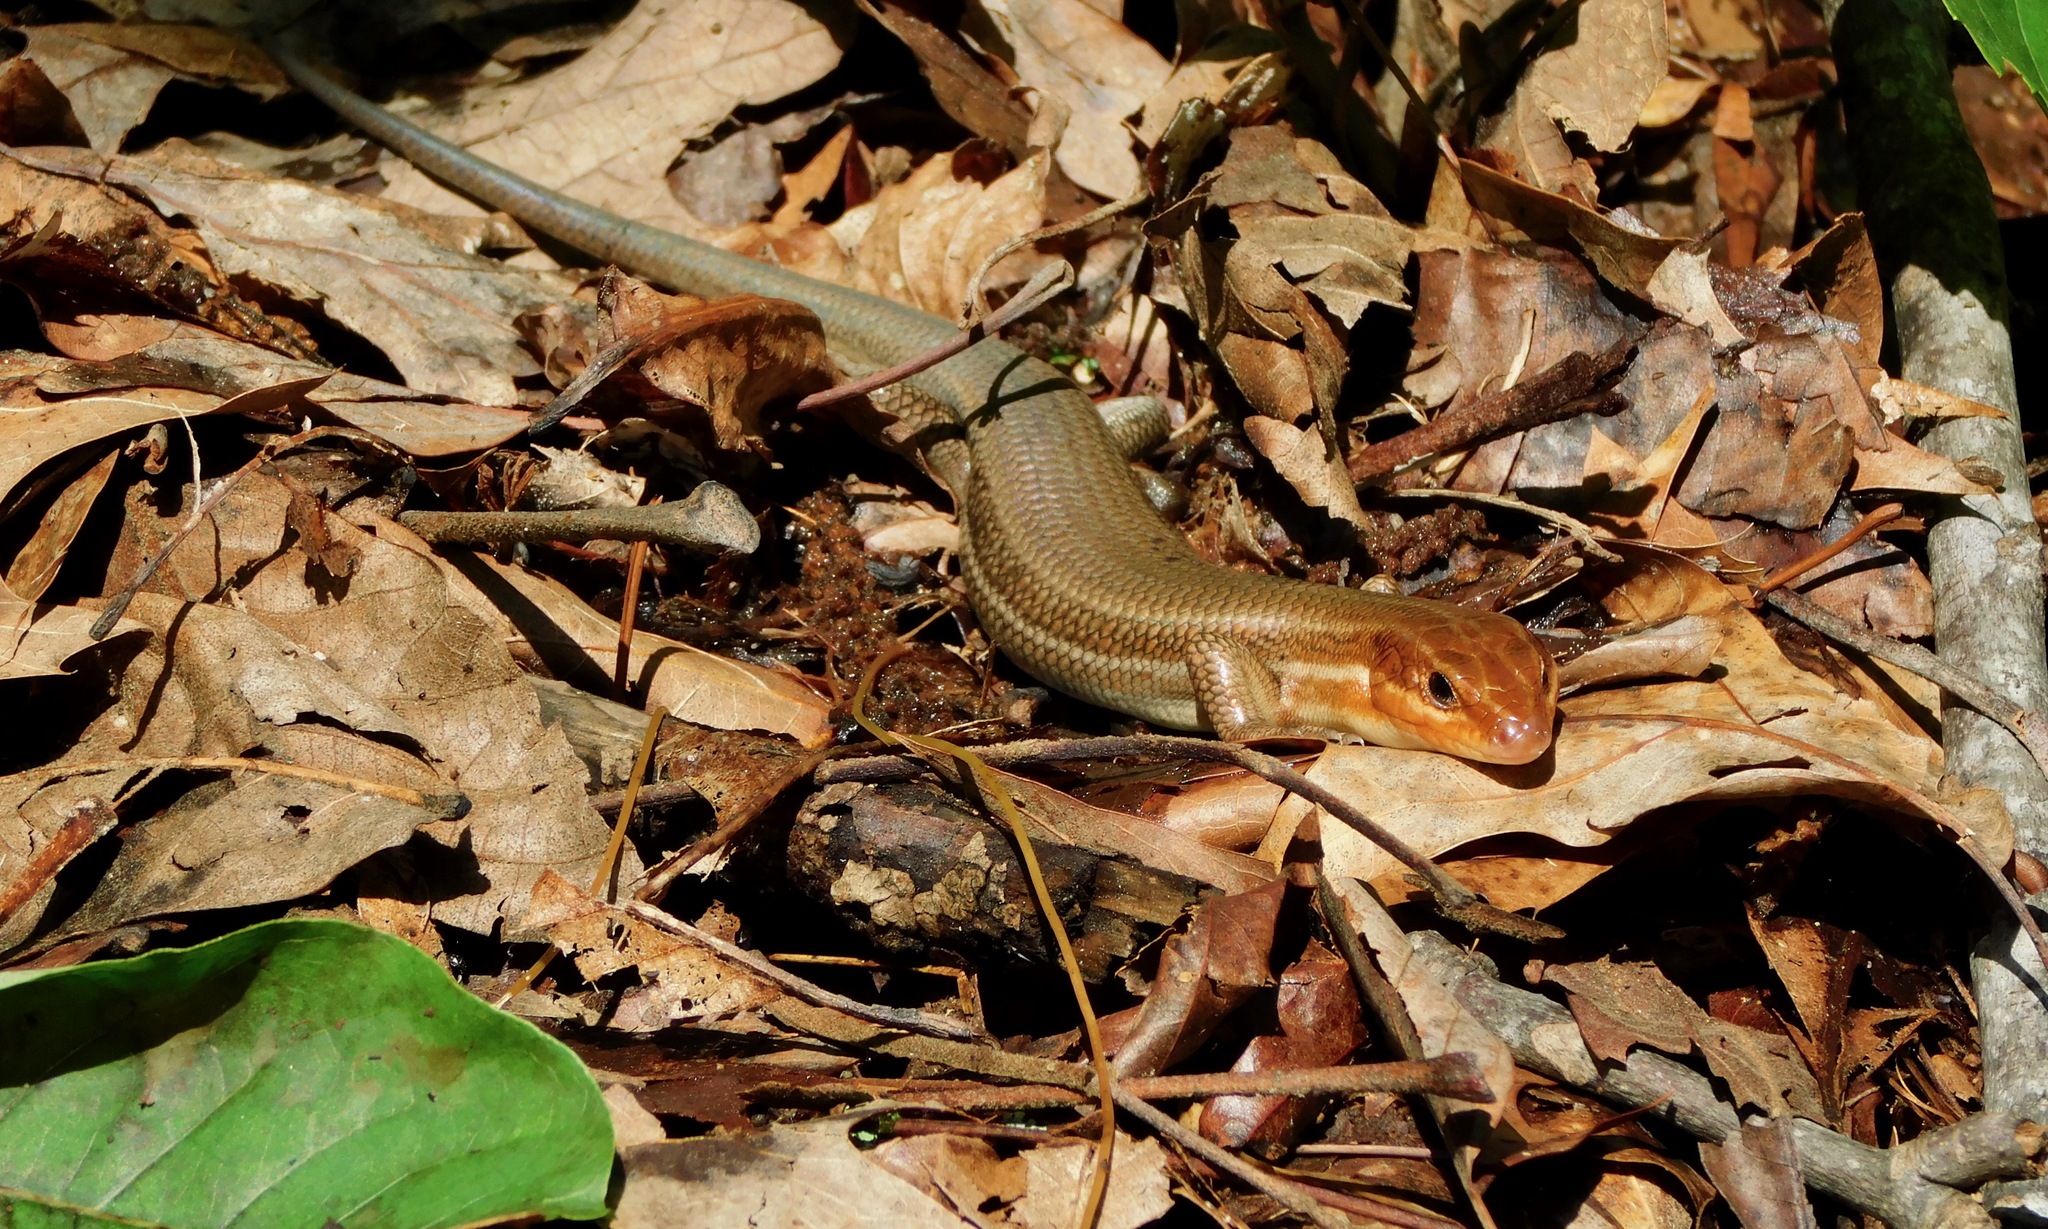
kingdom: Animalia
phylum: Chordata
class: Squamata
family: Scincidae
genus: Plestiodon
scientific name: Plestiodon inexpectatus
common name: Southeastern five-lined skink
